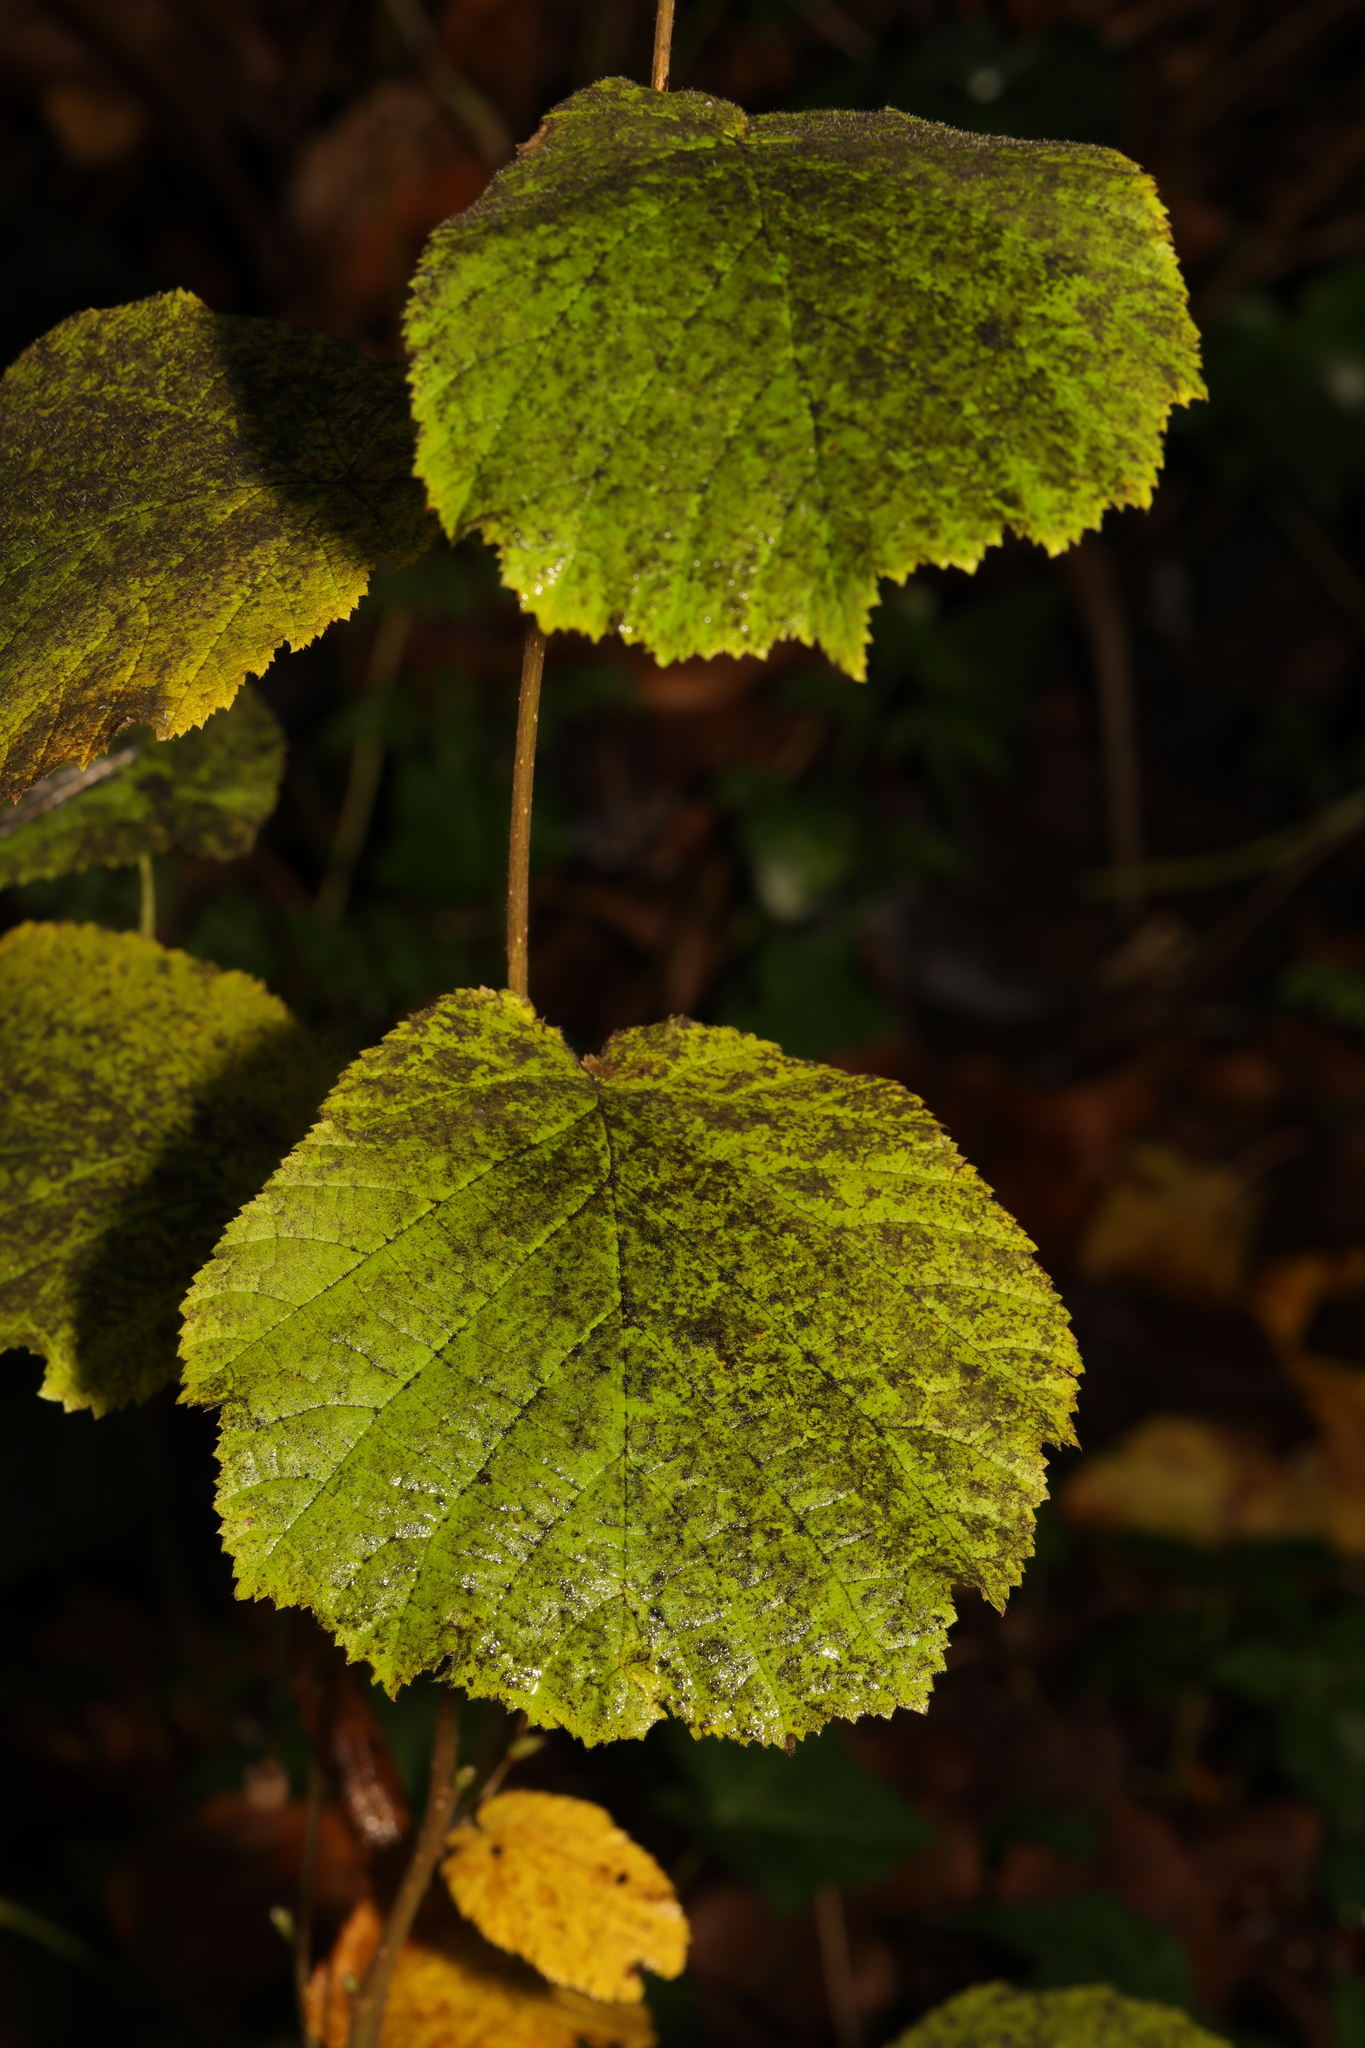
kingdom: Plantae
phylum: Tracheophyta
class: Magnoliopsida
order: Fagales
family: Betulaceae
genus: Corylus
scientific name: Corylus avellana
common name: European hazel
